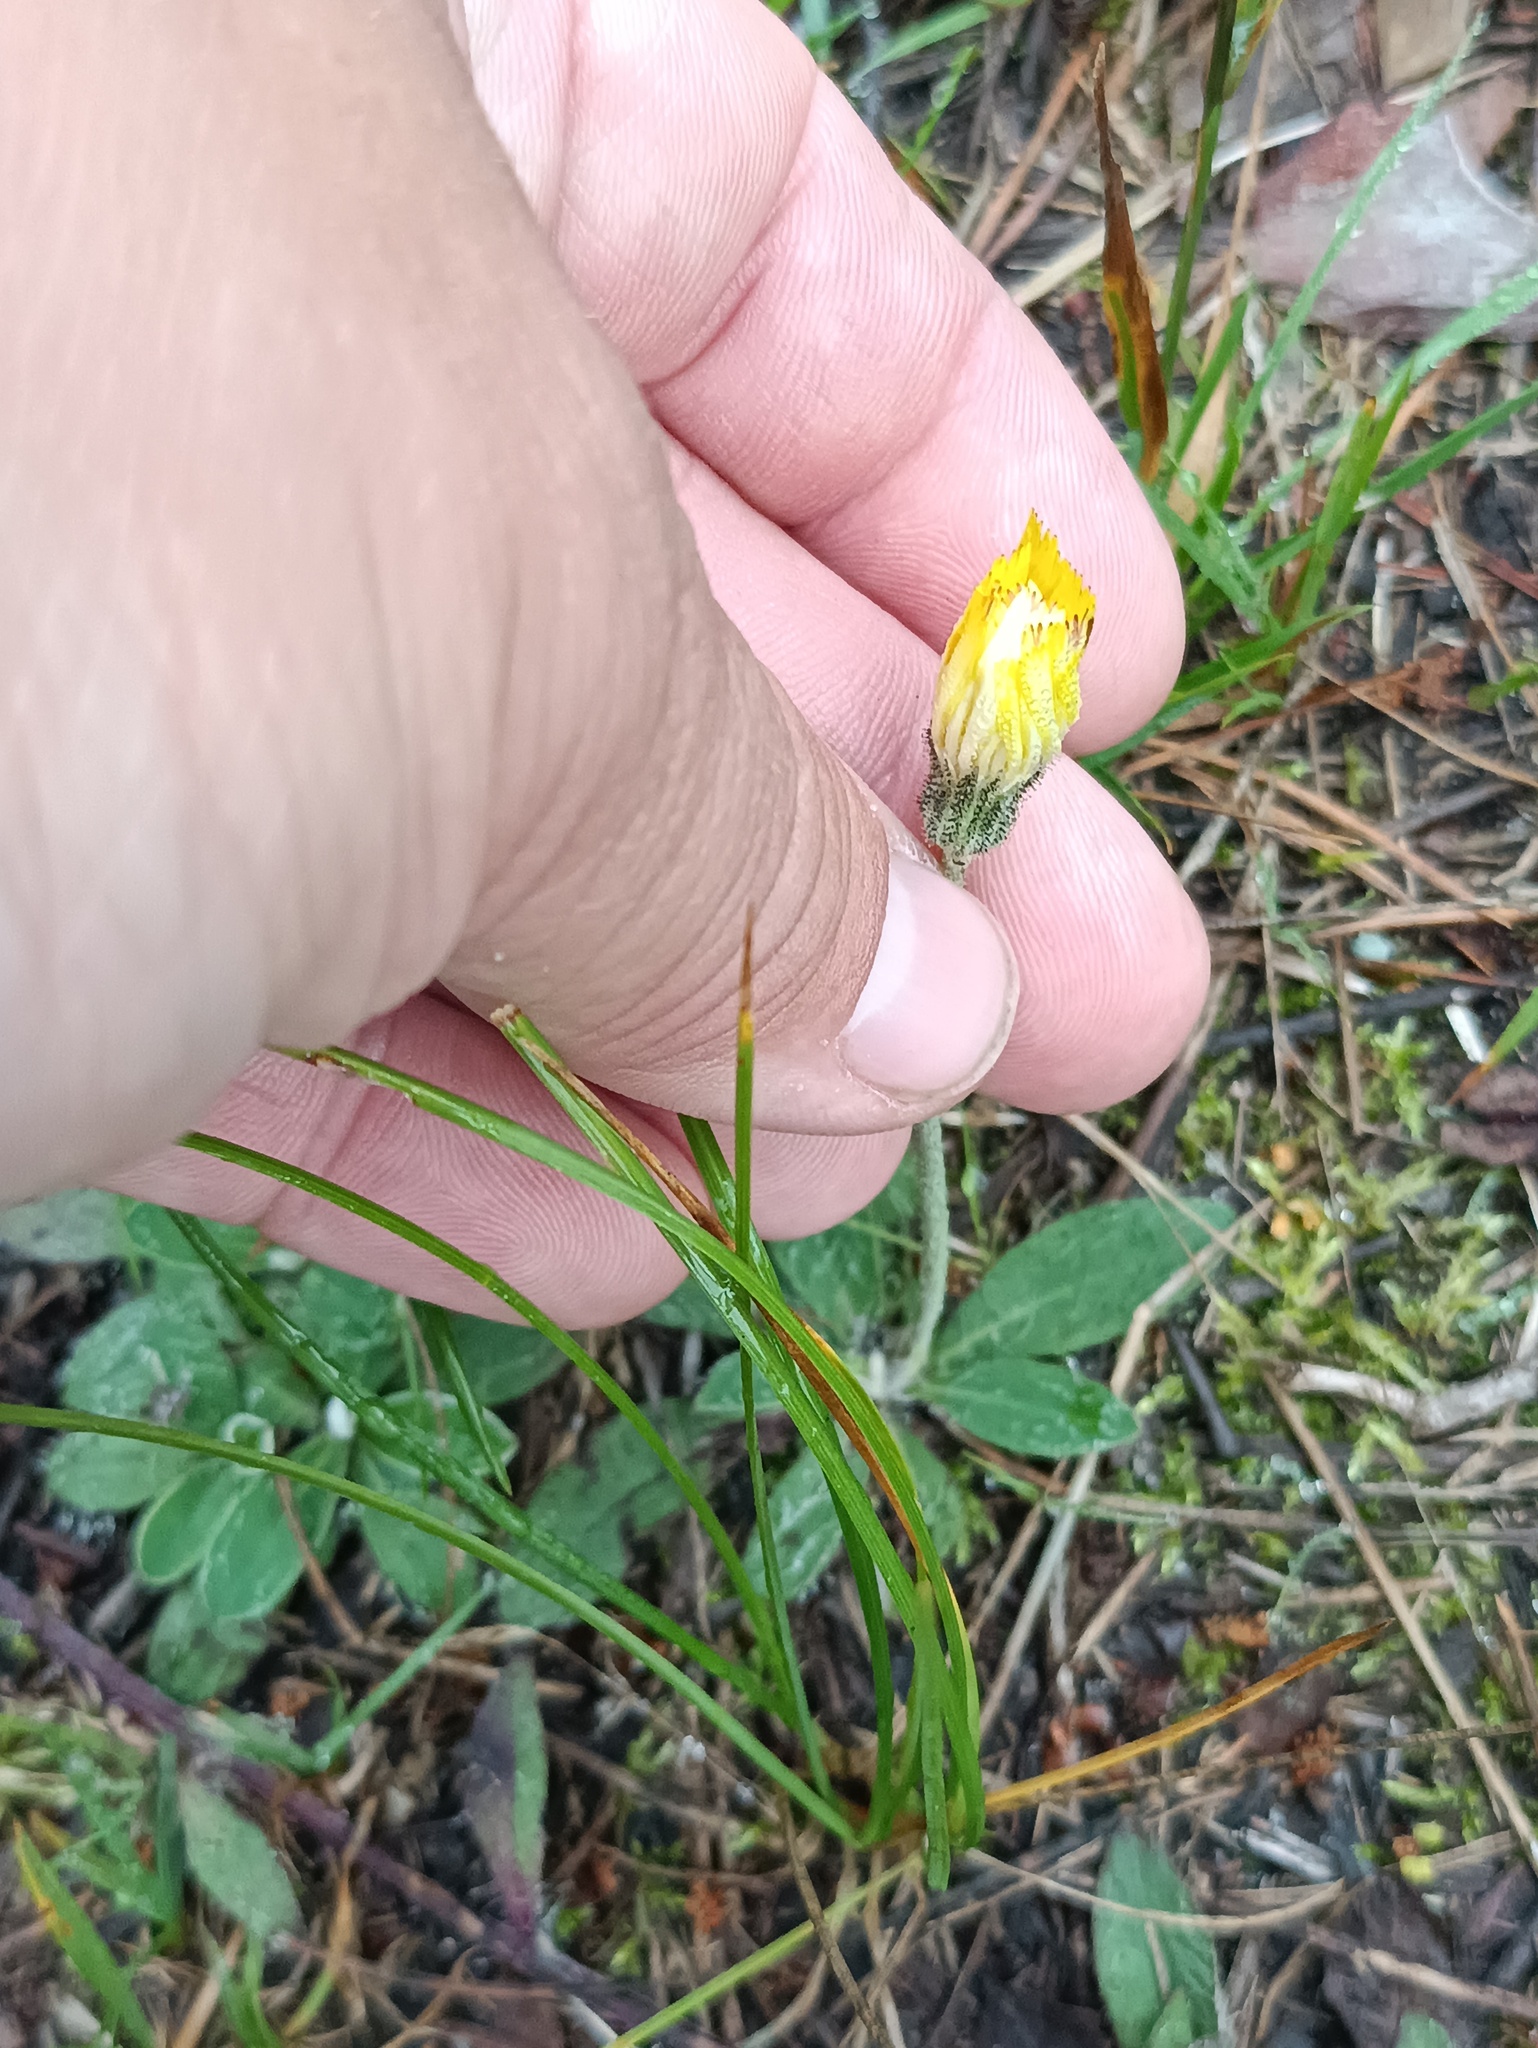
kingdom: Plantae
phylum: Tracheophyta
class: Magnoliopsida
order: Asterales
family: Asteraceae
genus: Pilosella
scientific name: Pilosella officinarum
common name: Mouse-ear hawkweed
